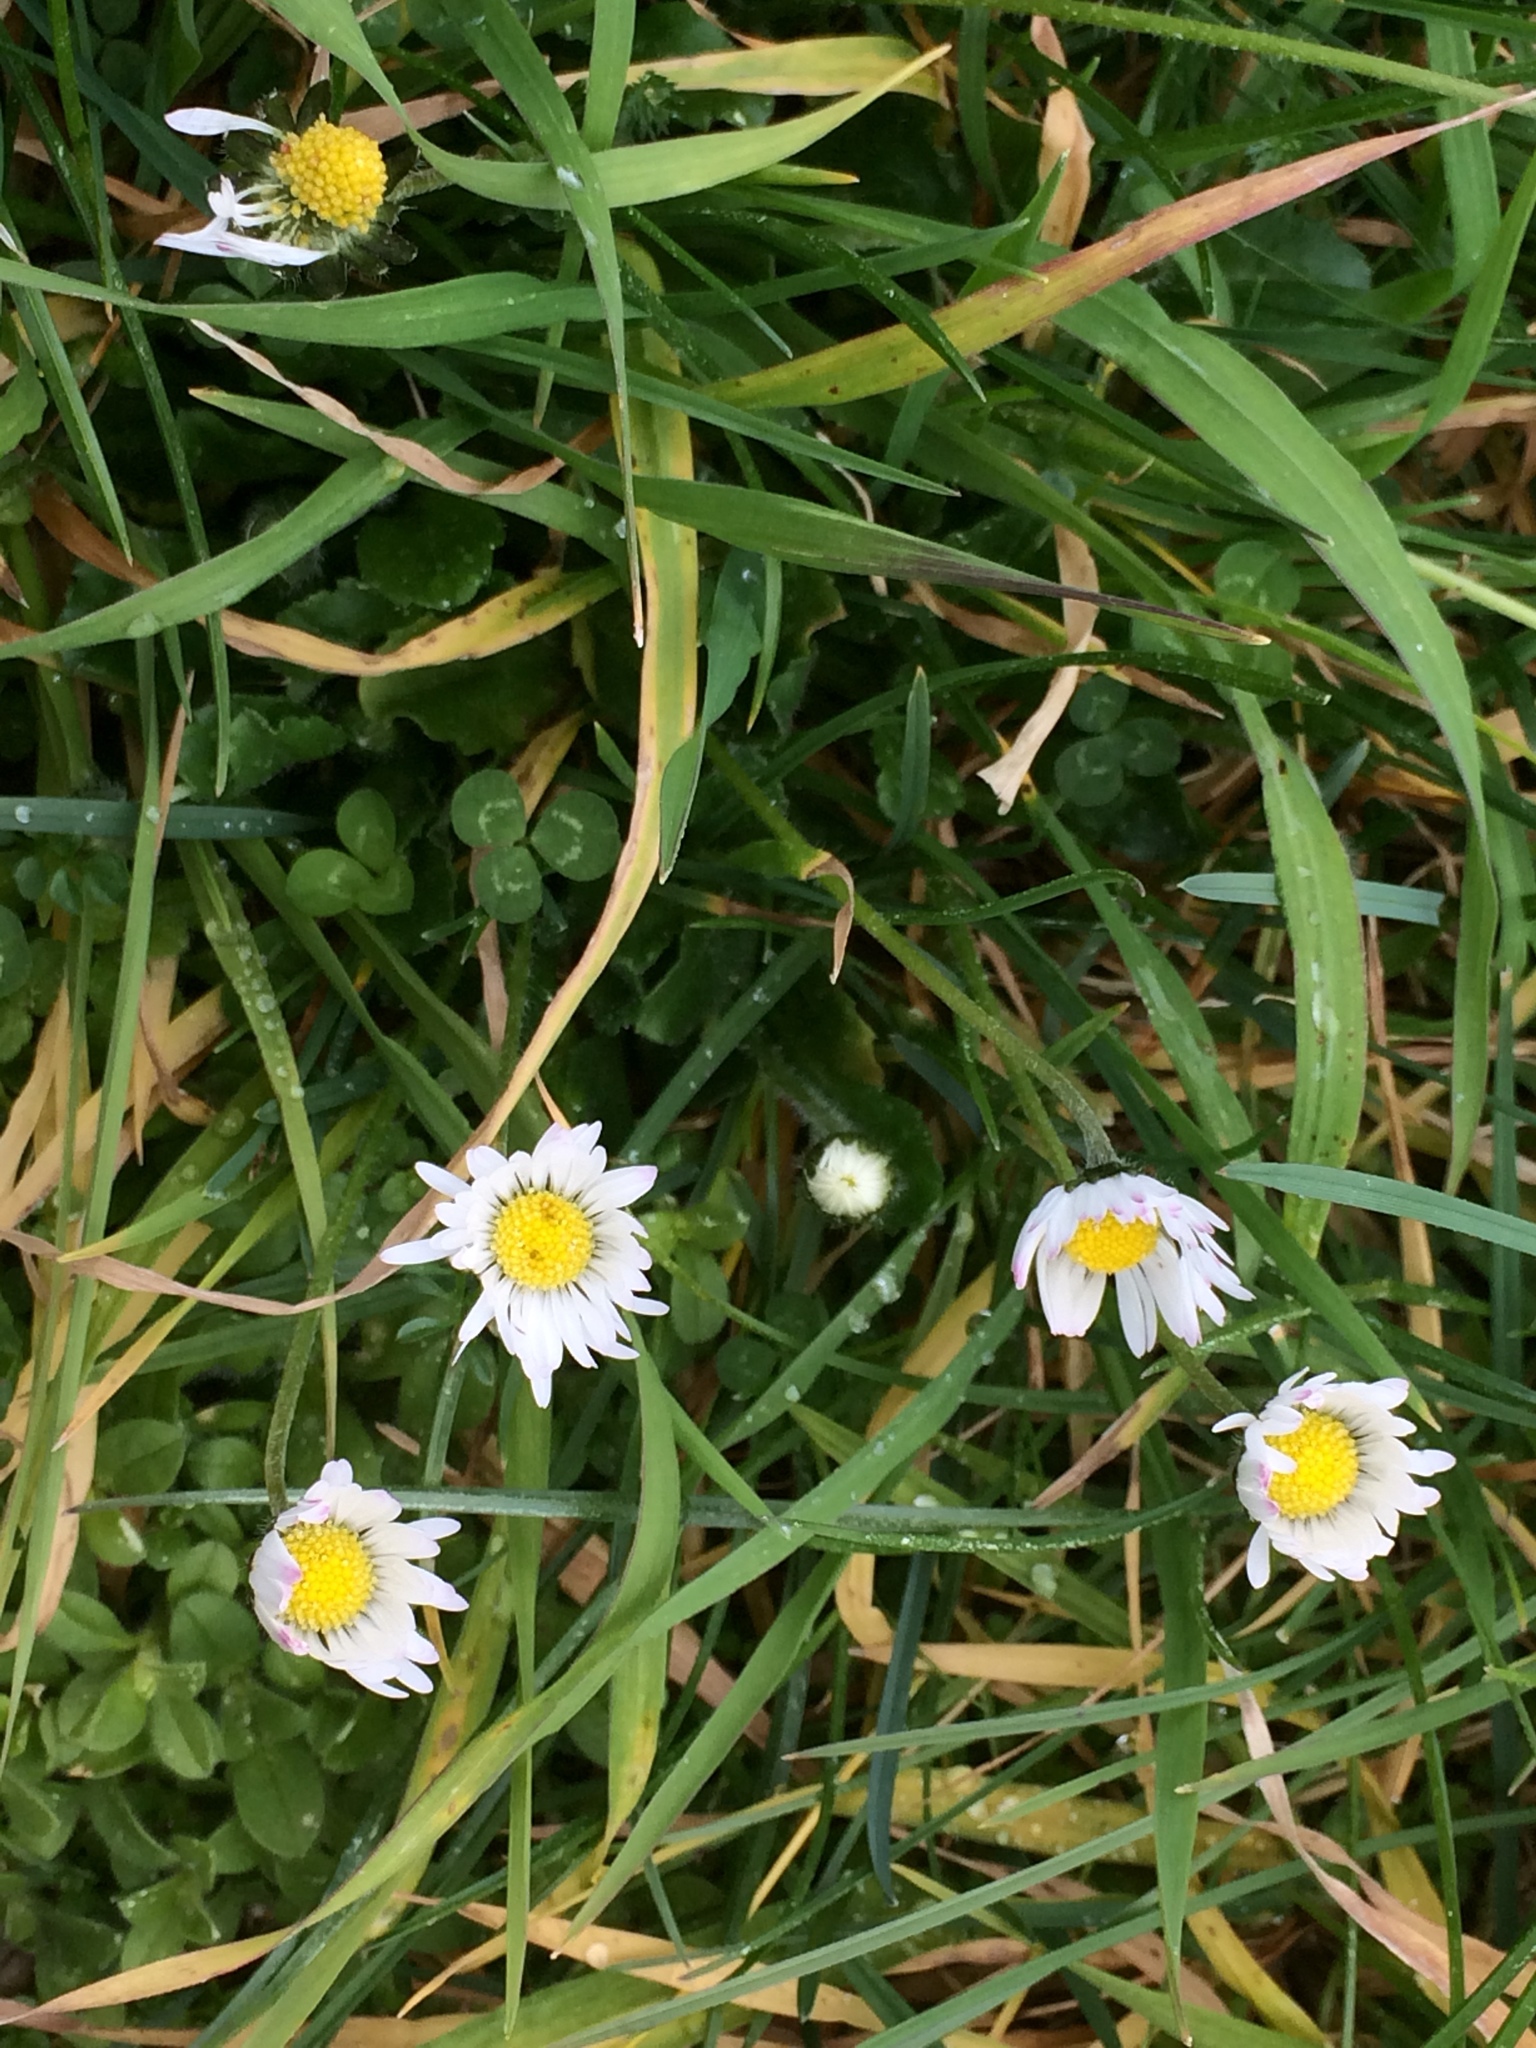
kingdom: Plantae
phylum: Tracheophyta
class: Magnoliopsida
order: Asterales
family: Asteraceae
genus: Bellis
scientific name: Bellis perennis
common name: Lawndaisy
